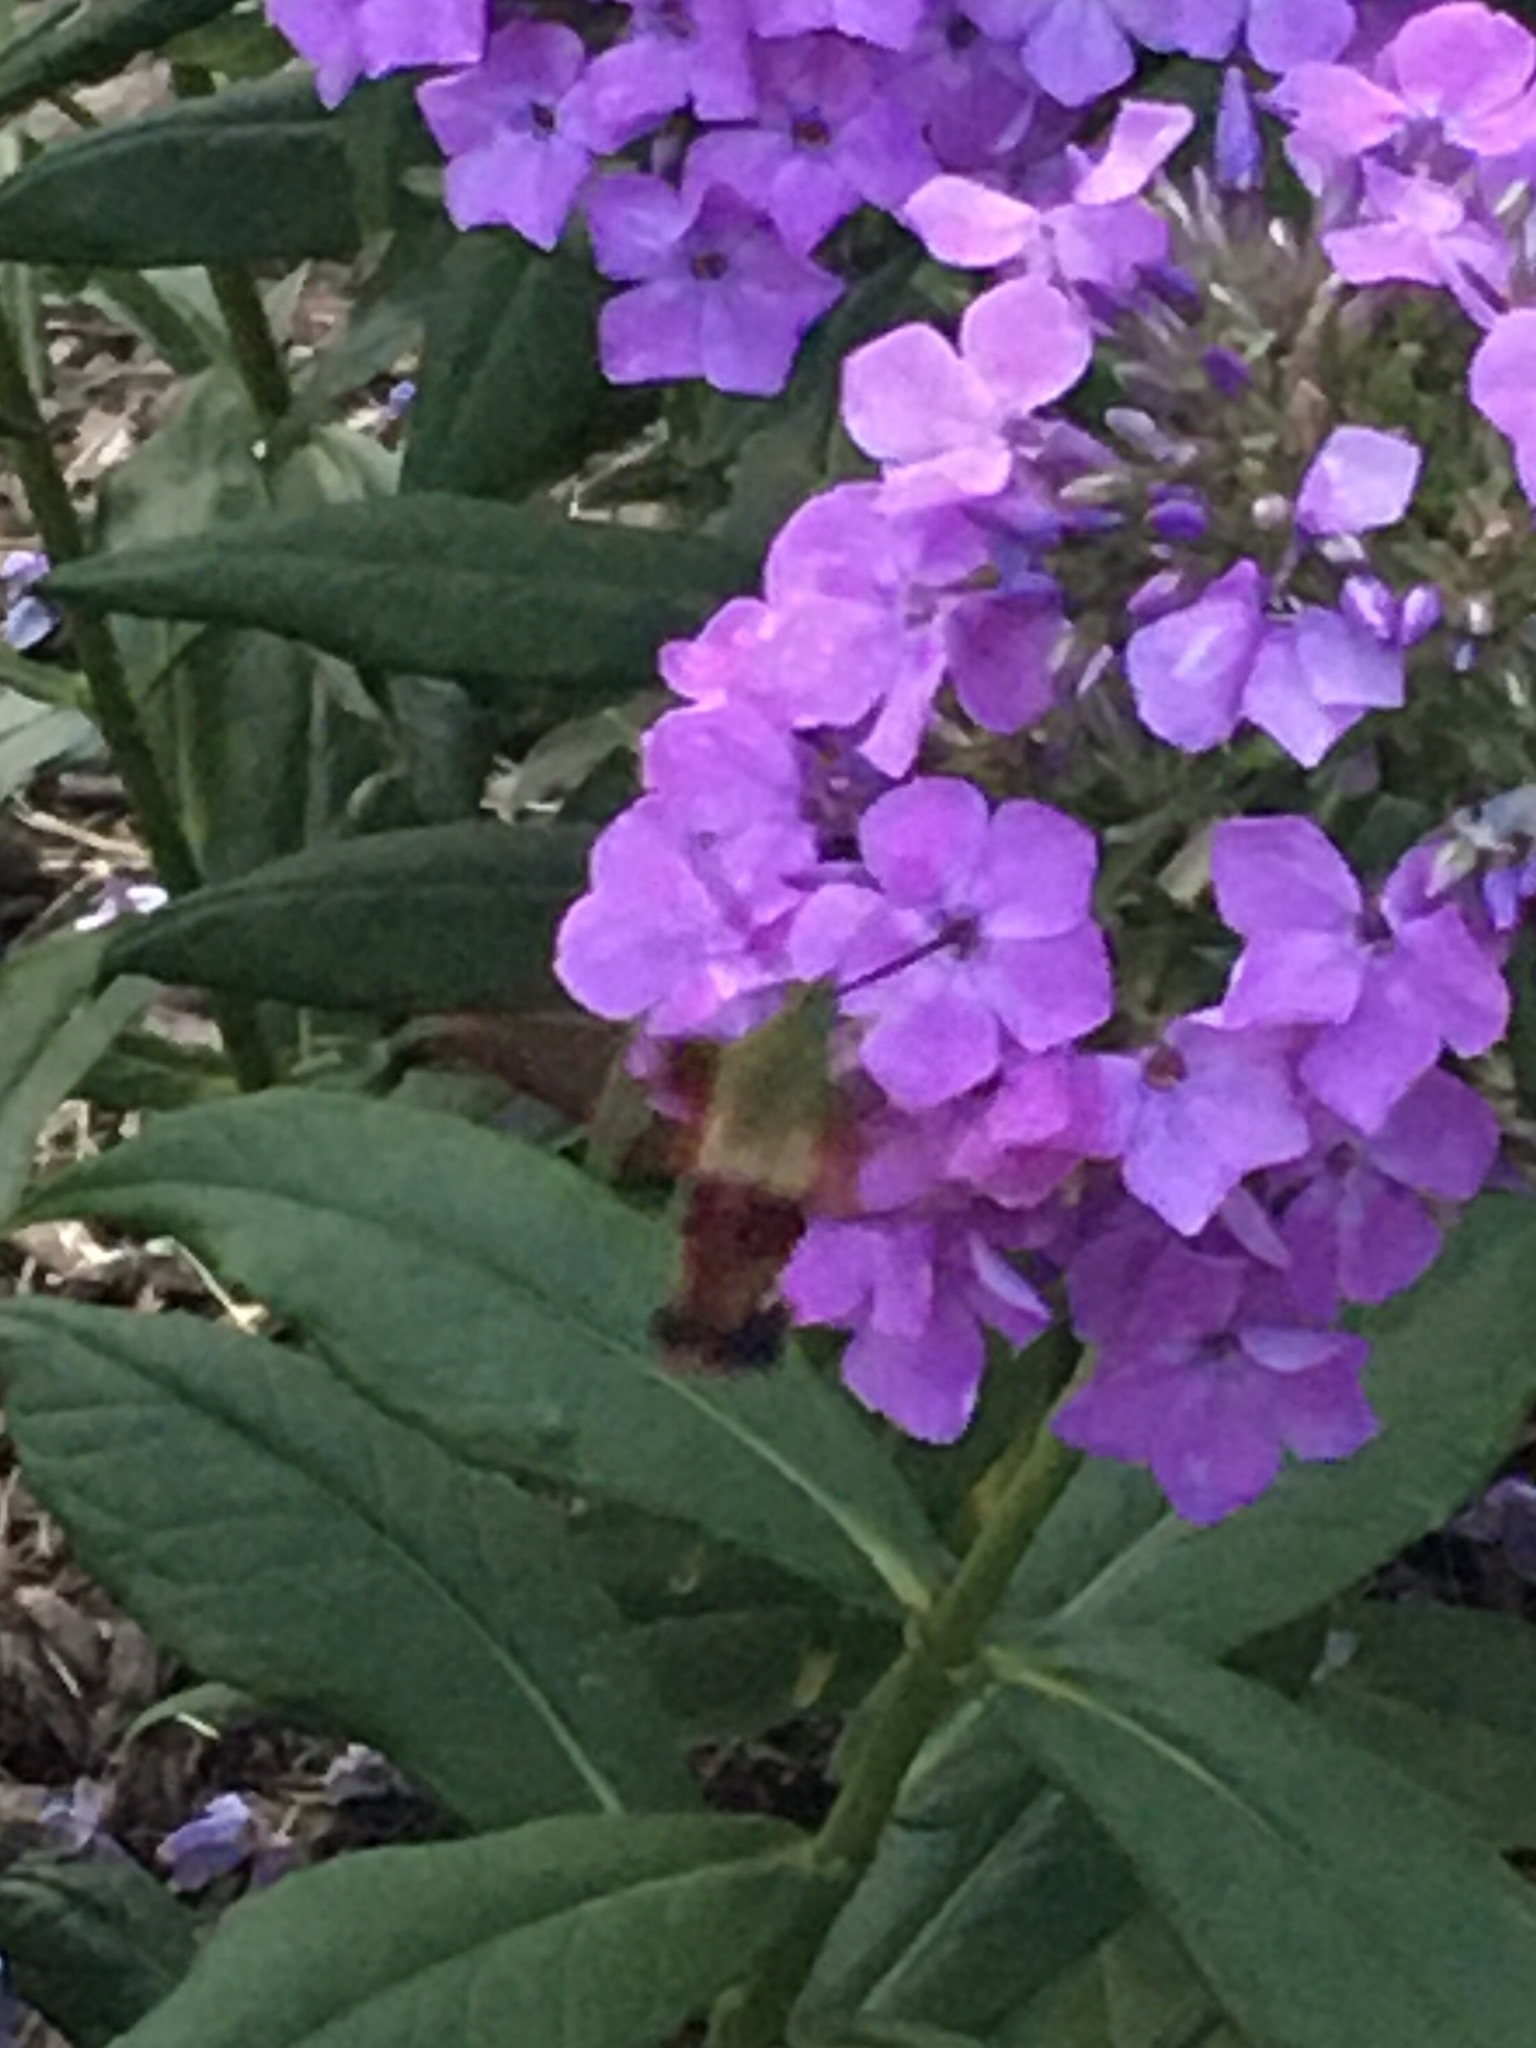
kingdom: Animalia
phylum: Arthropoda
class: Insecta
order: Lepidoptera
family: Sphingidae
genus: Hemaris
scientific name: Hemaris thysbe
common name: Common clear-wing
